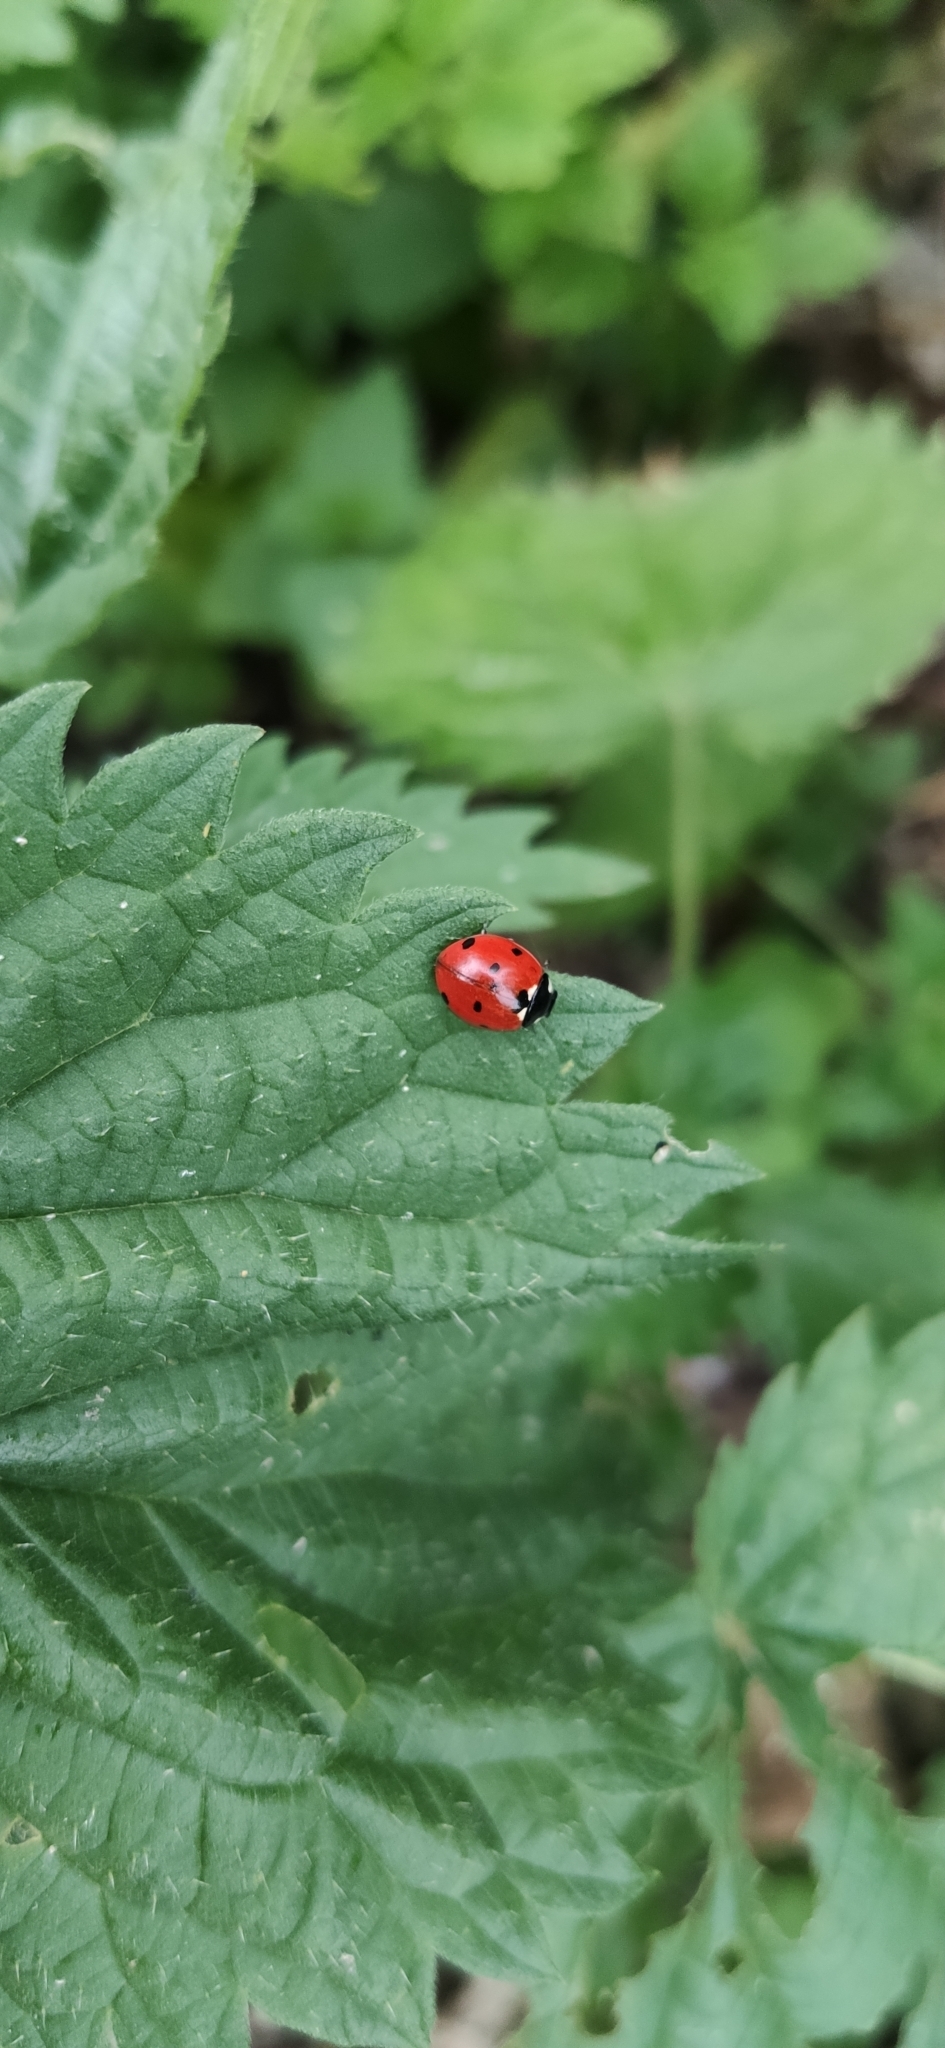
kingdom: Animalia
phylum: Arthropoda
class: Insecta
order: Coleoptera
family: Coccinellidae
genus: Coccinella
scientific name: Coccinella septempunctata
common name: Sevenspotted lady beetle
